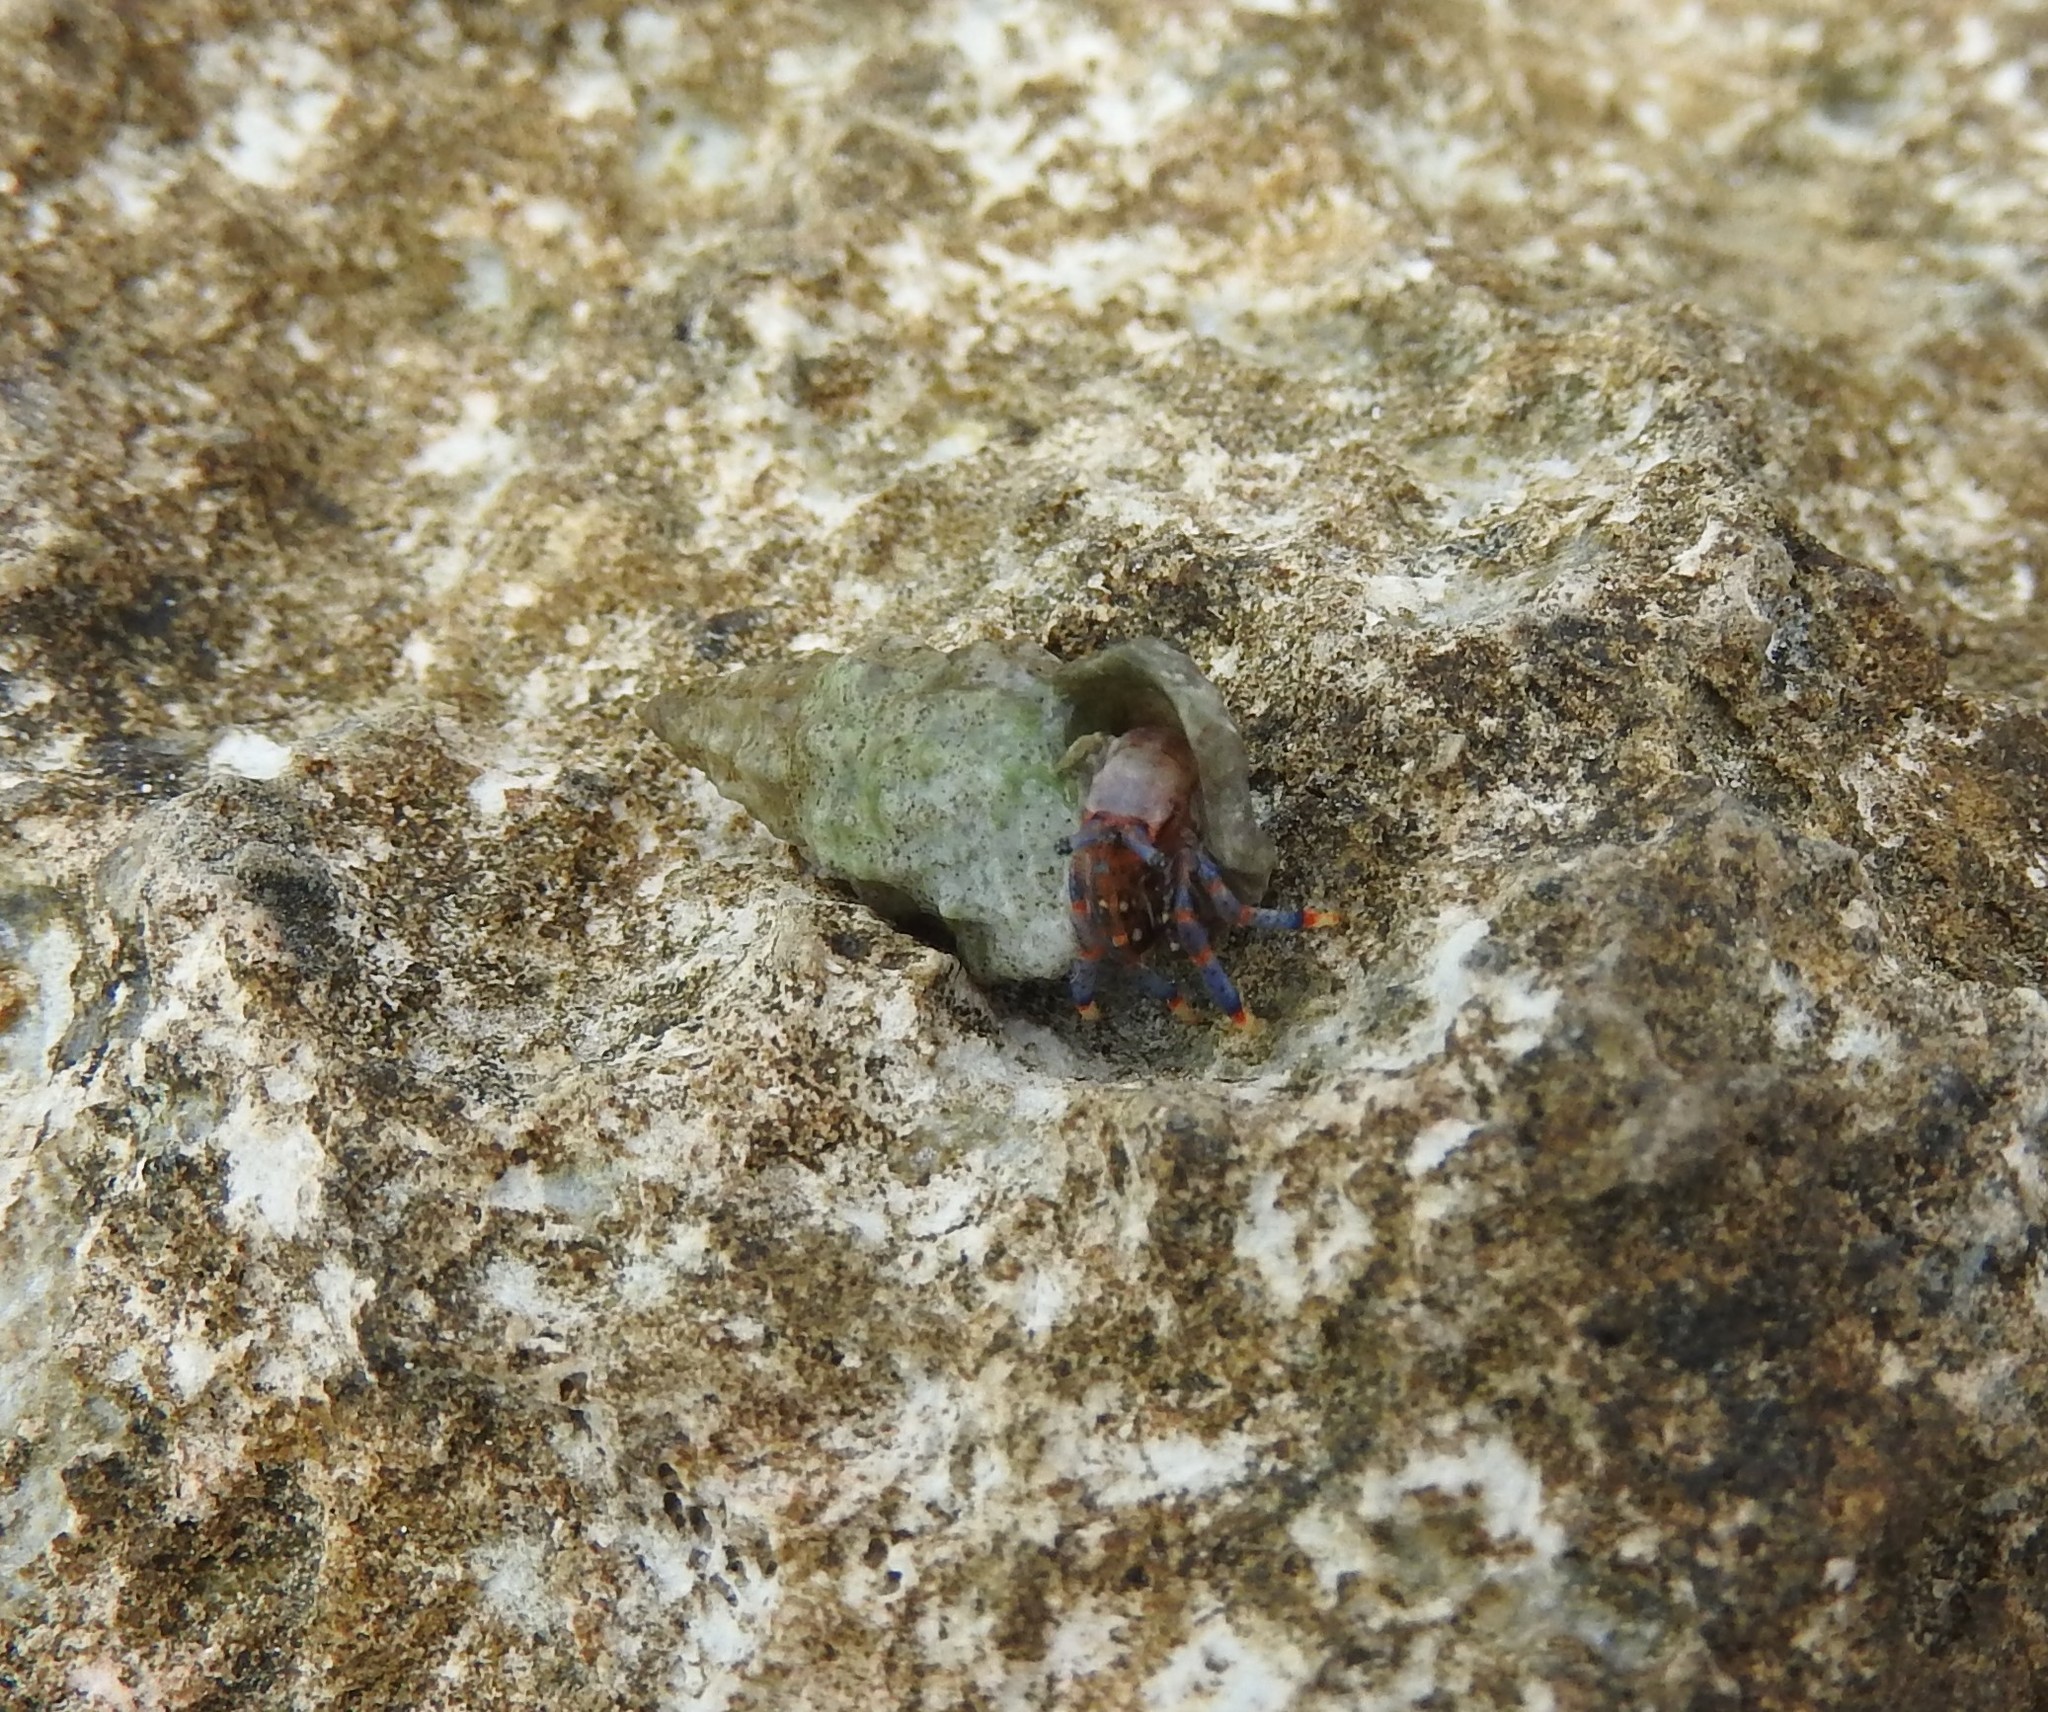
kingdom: Animalia
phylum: Arthropoda
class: Malacostraca
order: Decapoda
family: Diogenidae
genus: Clibanarius
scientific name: Clibanarius tricolor
